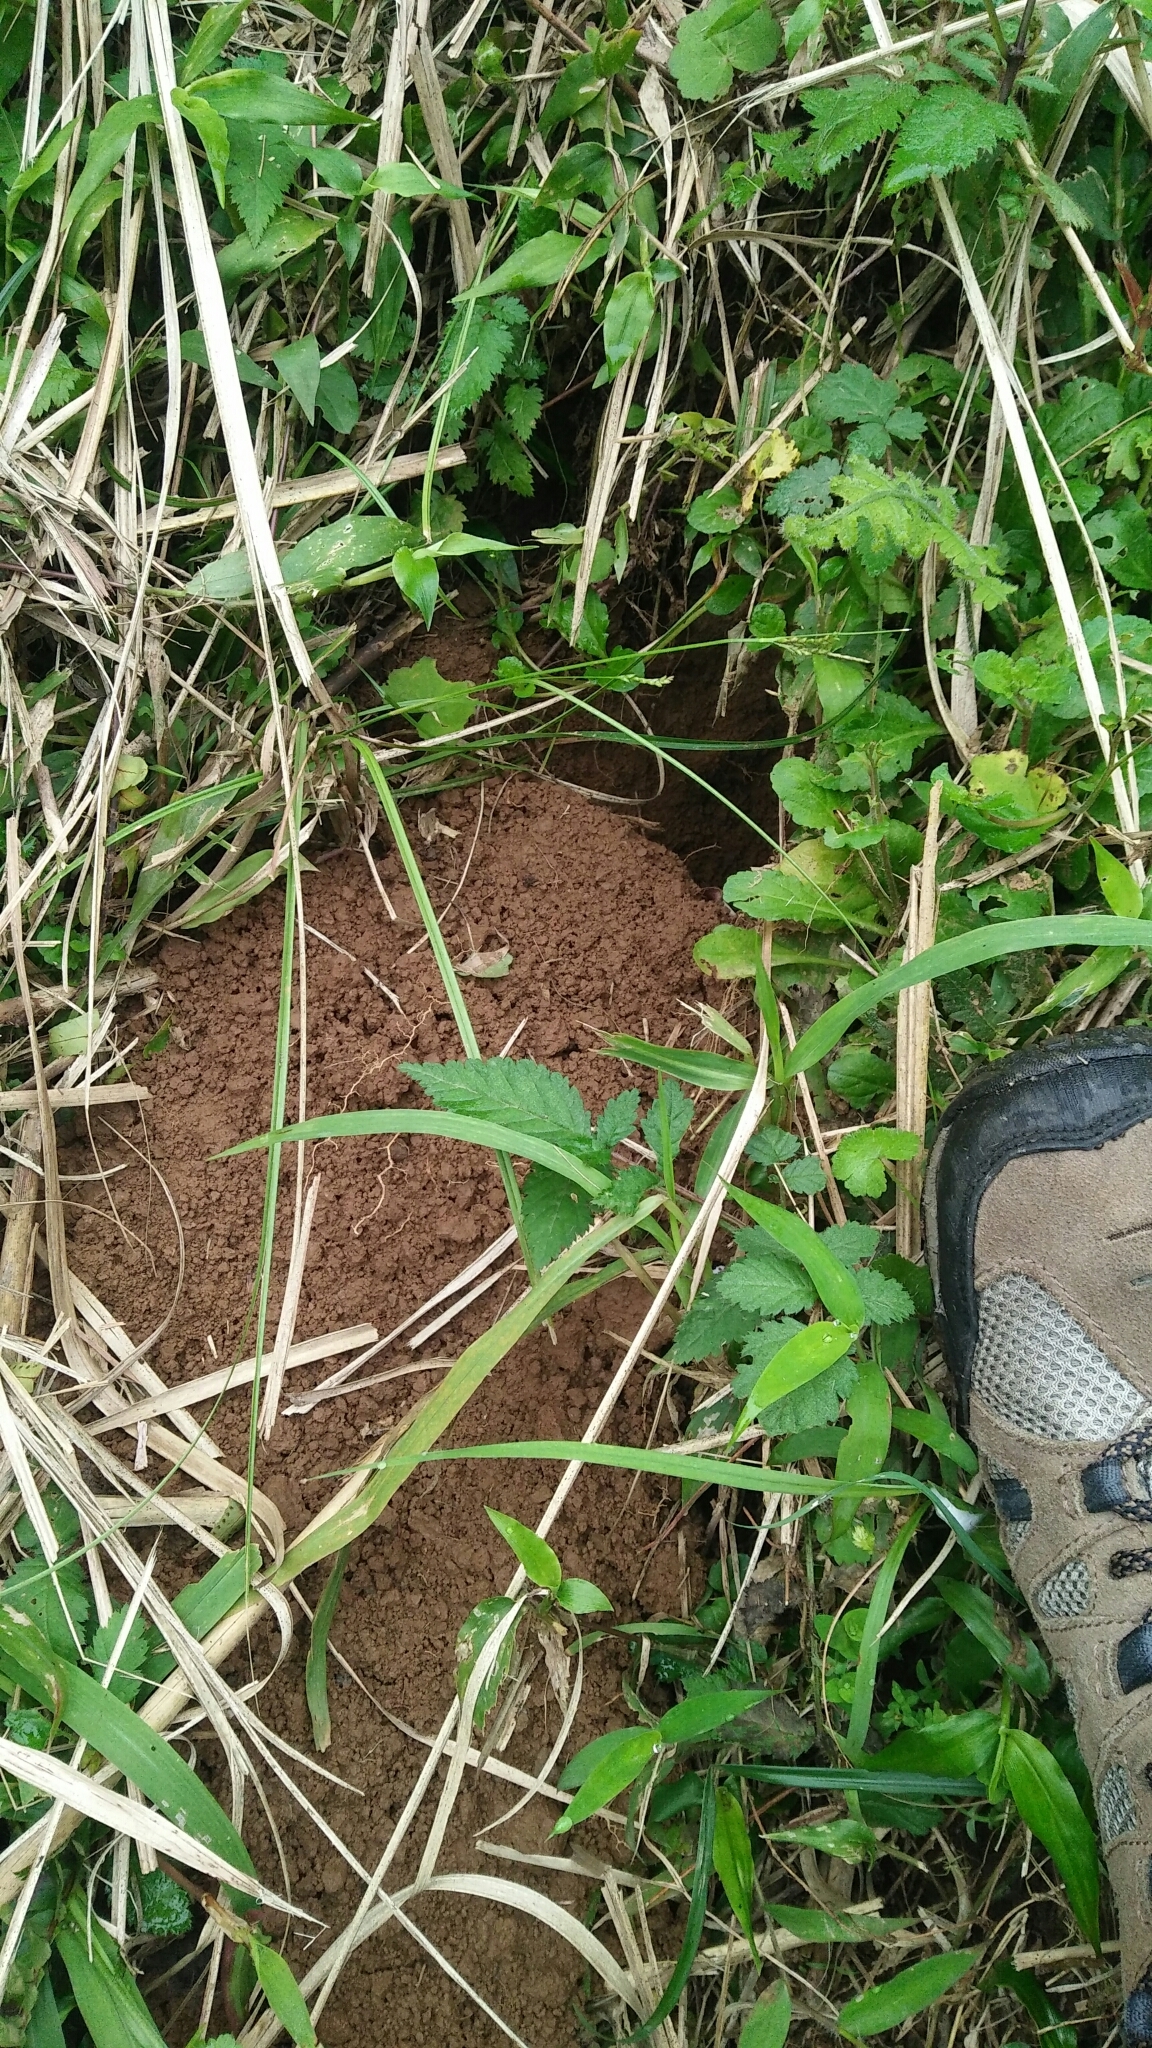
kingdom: Animalia
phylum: Chordata
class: Mammalia
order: Pholidota
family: Manidae
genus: Manis
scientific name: Manis pentadactyla
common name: Chinese pangolin
